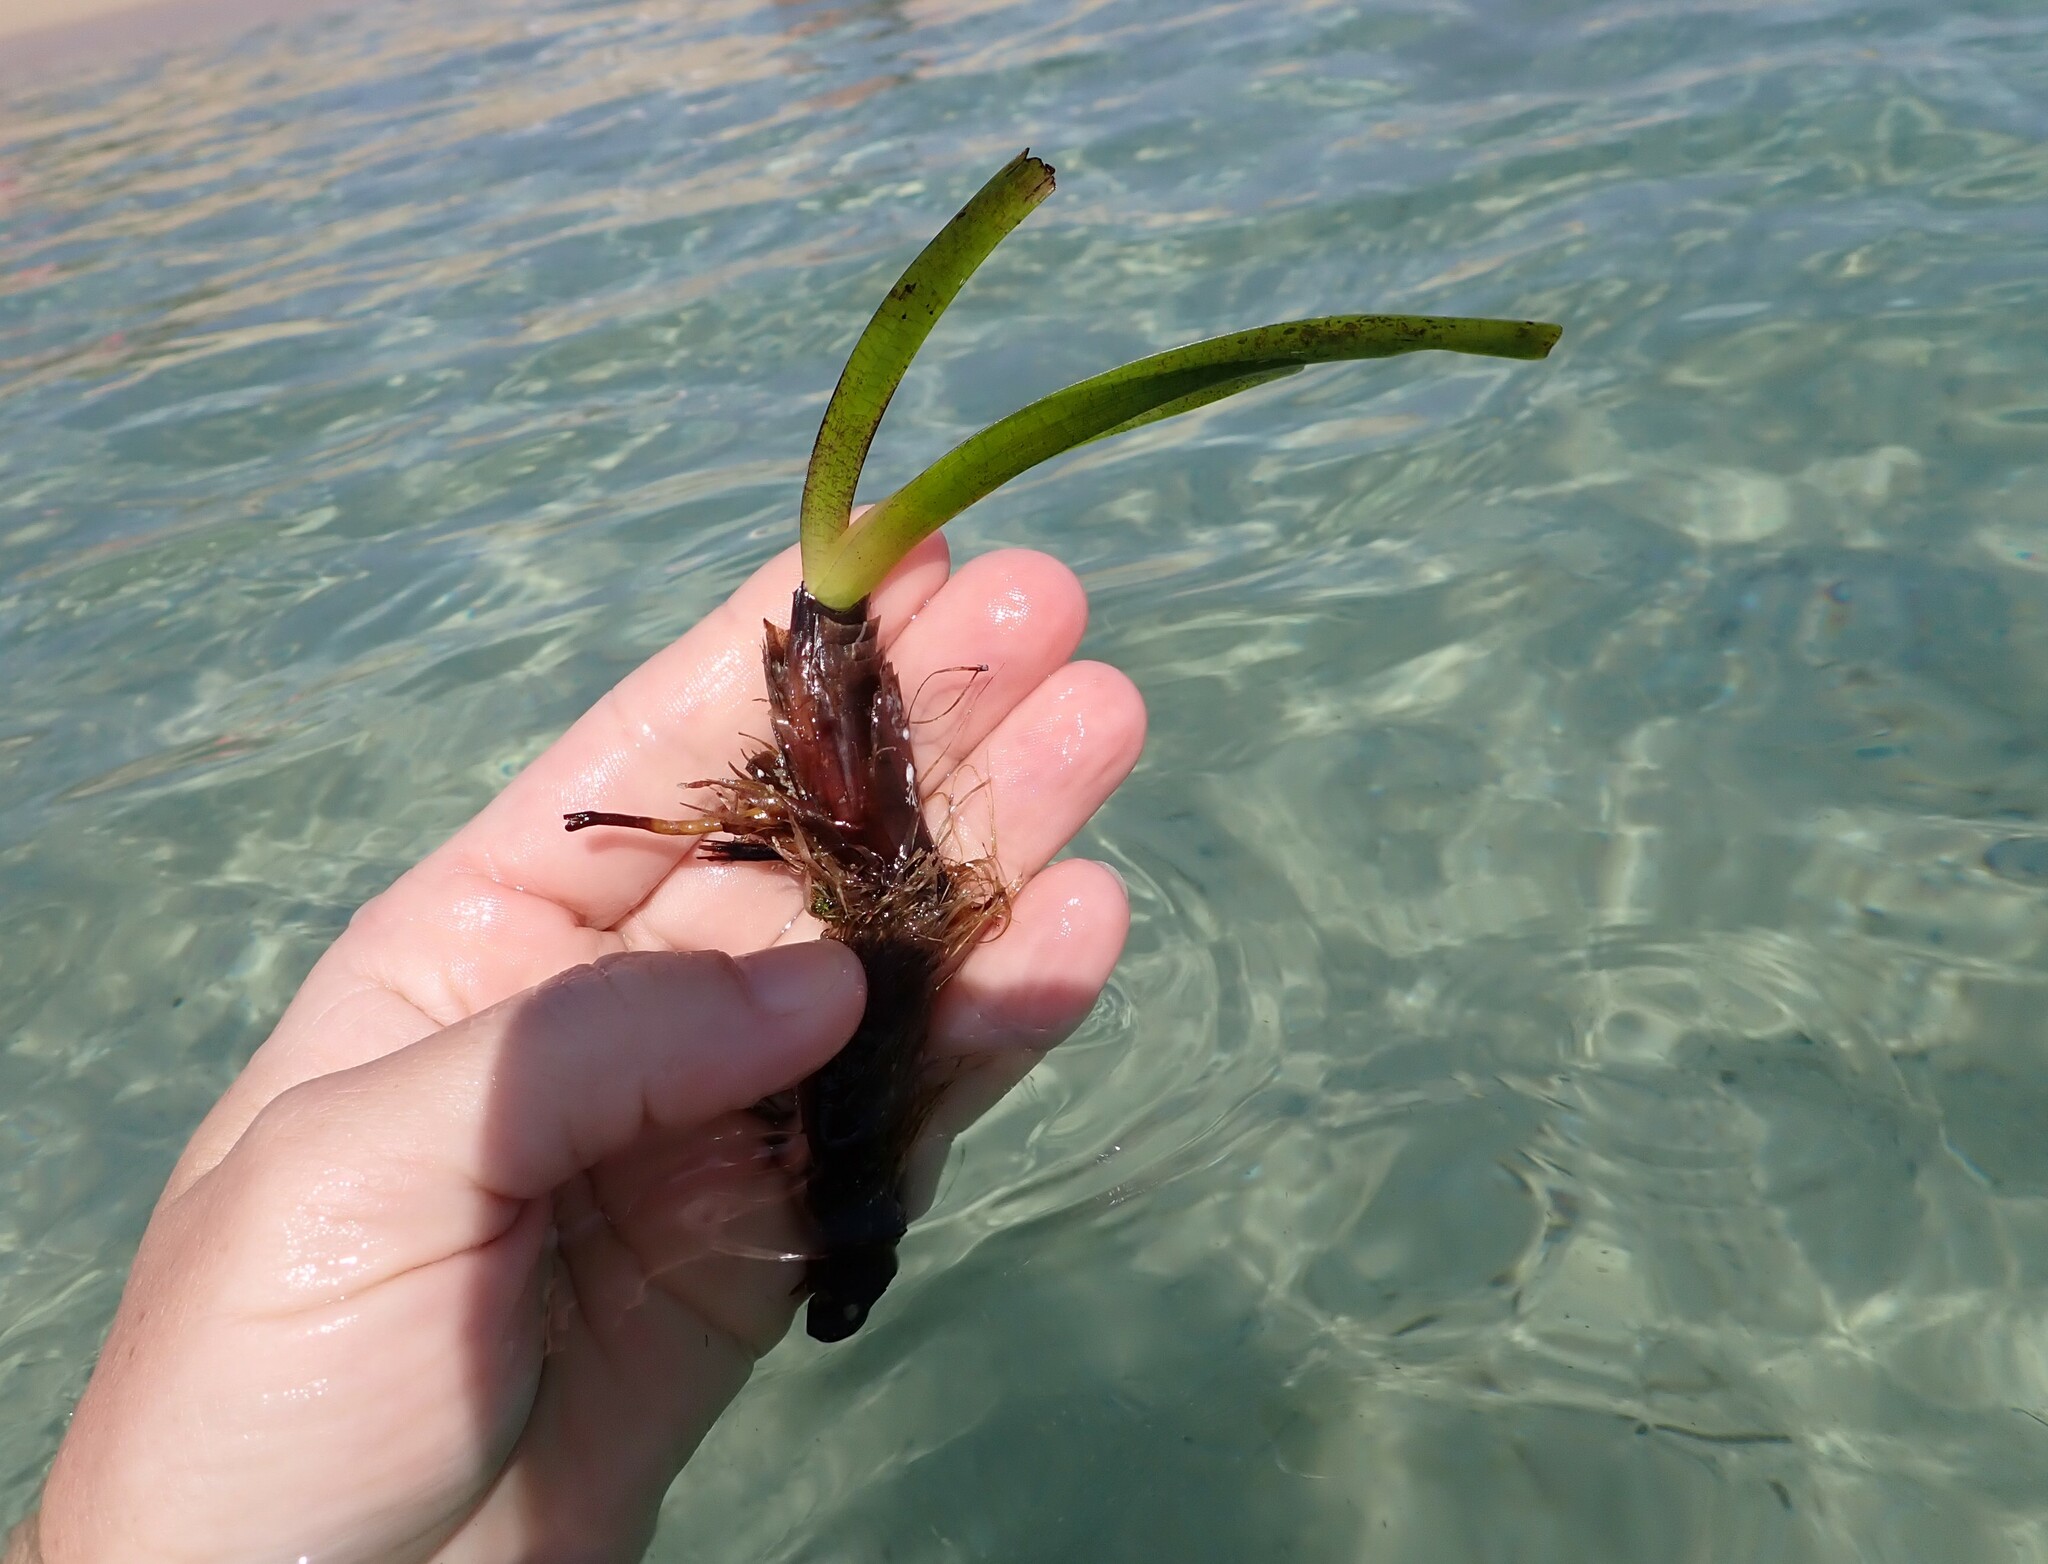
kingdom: Plantae
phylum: Tracheophyta
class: Liliopsida
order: Alismatales
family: Posidoniaceae
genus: Posidonia
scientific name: Posidonia oceanica
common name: Mediterranean tapeweed
